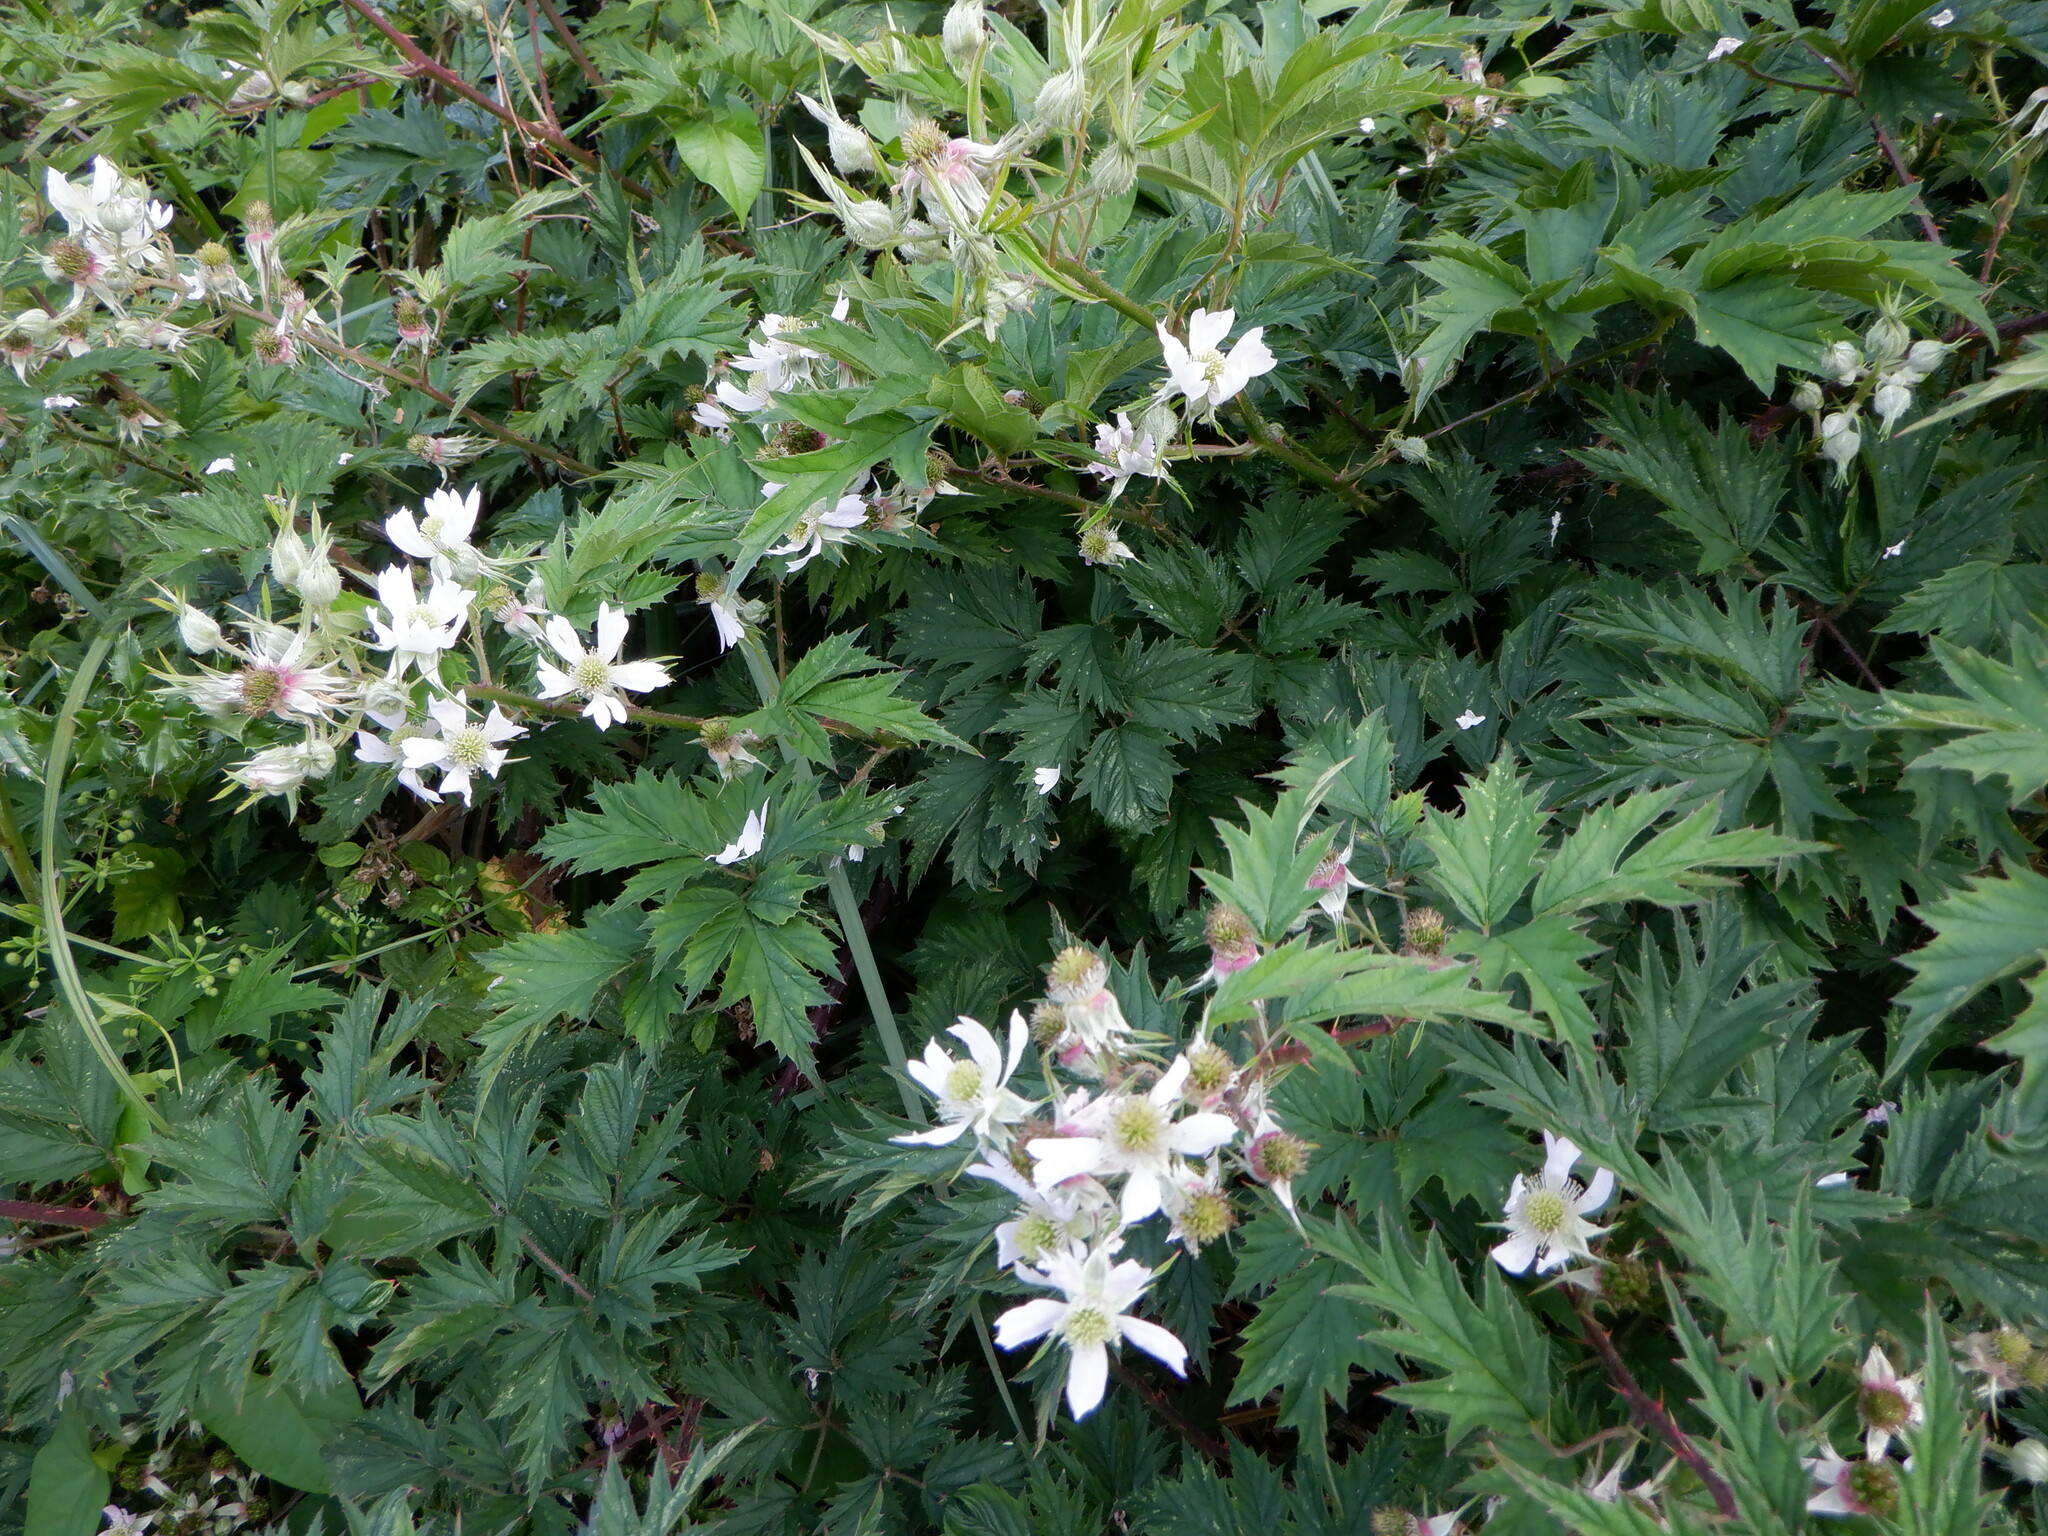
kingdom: Plantae
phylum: Tracheophyta
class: Magnoliopsida
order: Rosales
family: Rosaceae
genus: Rubus
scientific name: Rubus laciniatus
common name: Evergreen blackberry
